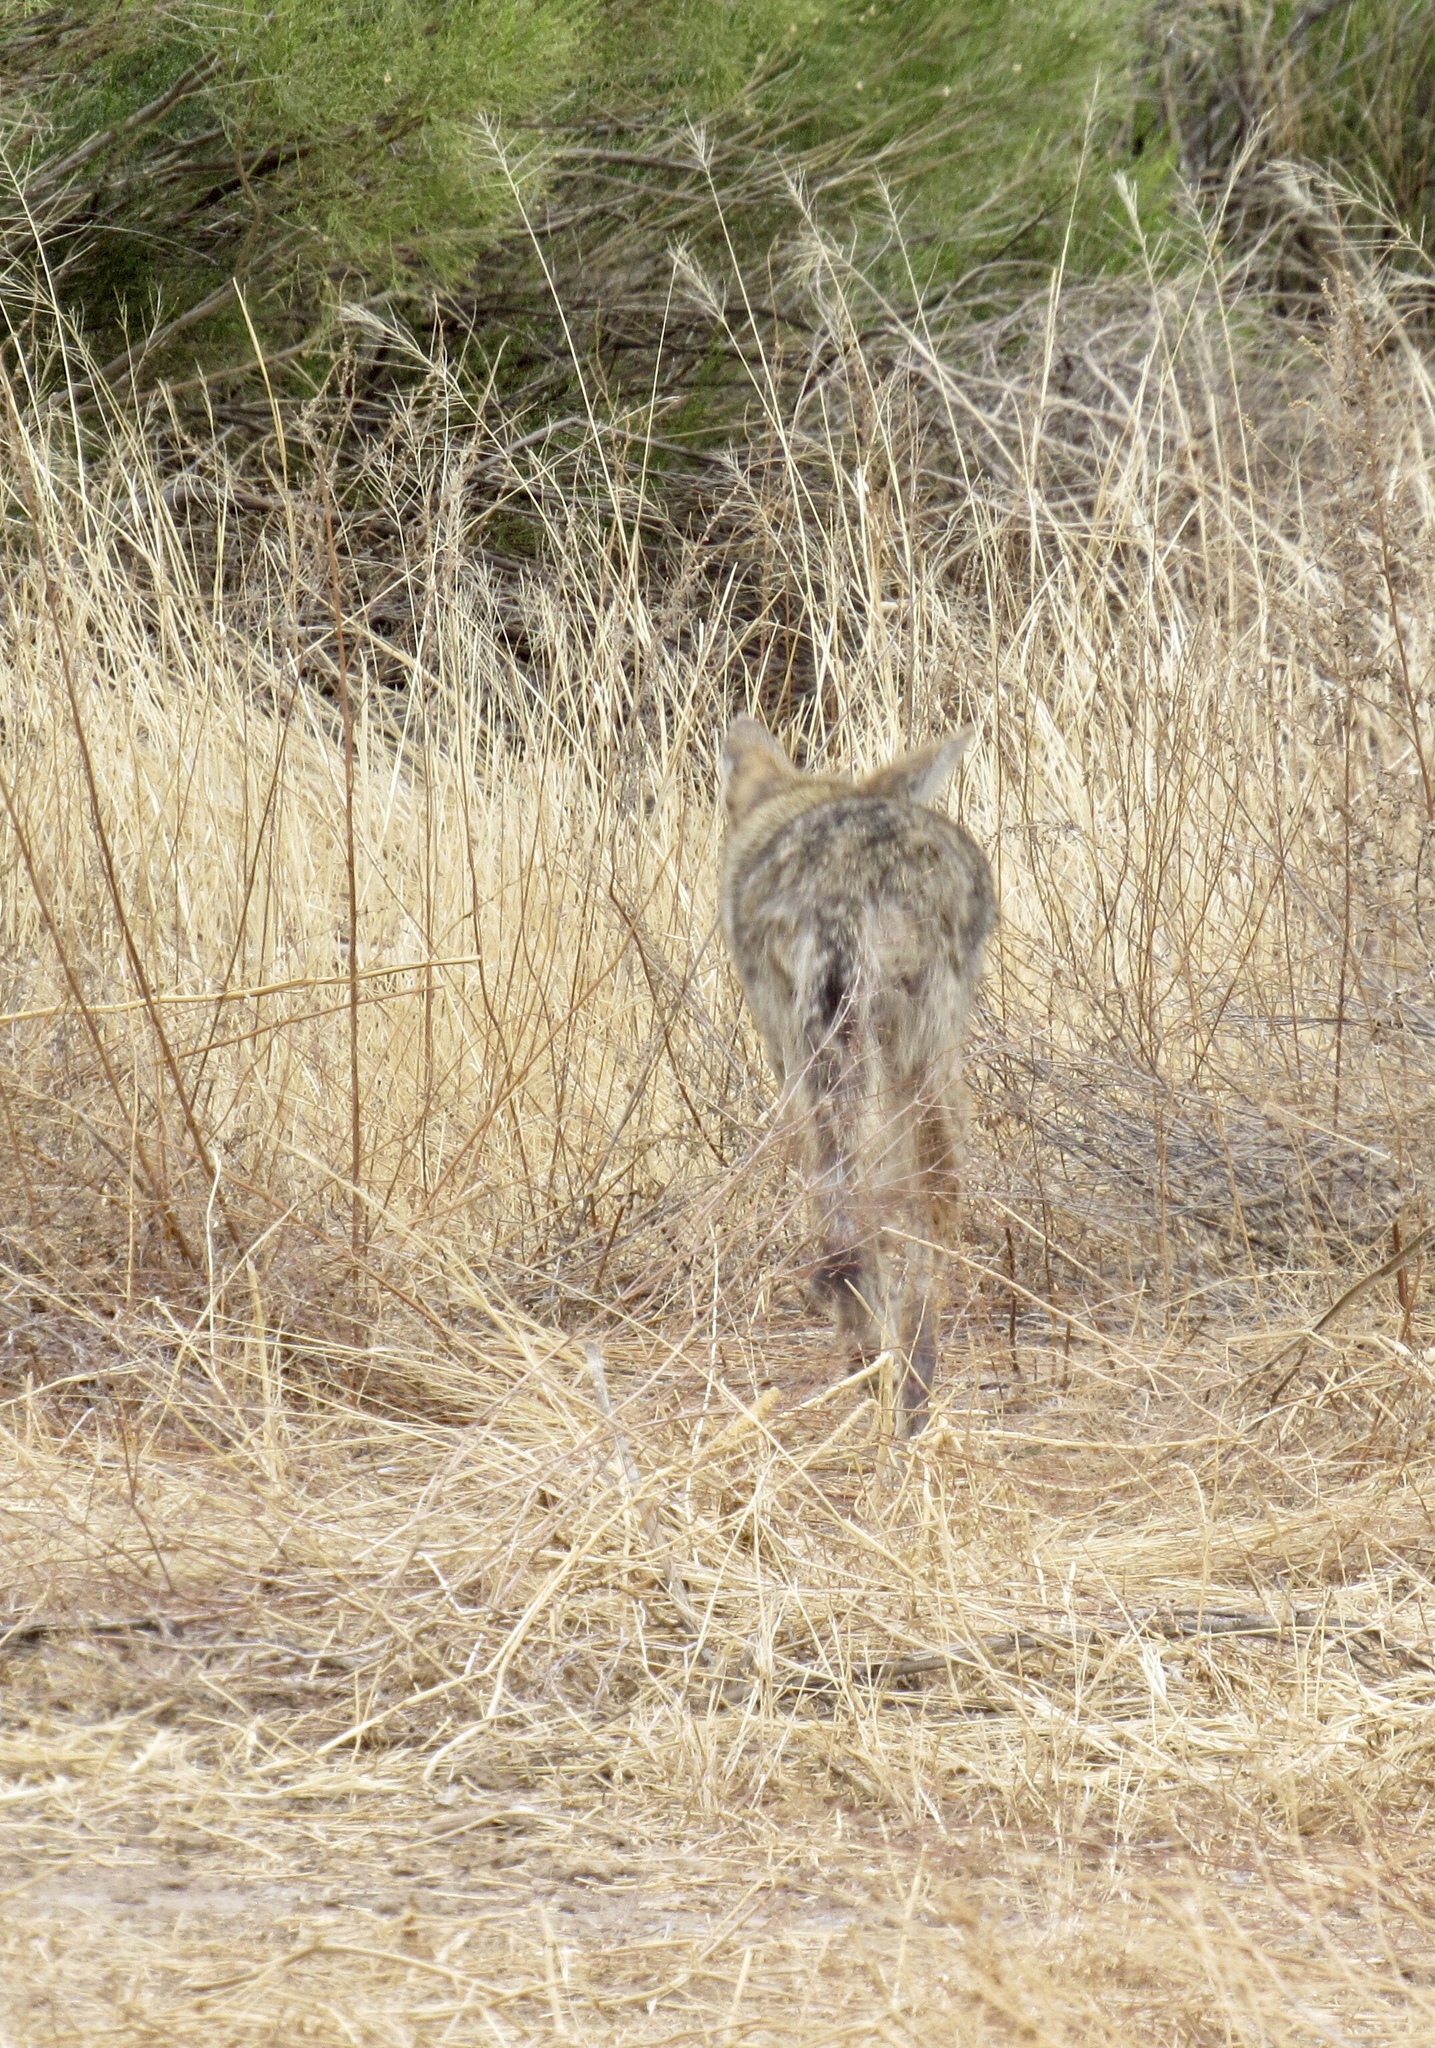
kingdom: Animalia
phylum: Chordata
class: Mammalia
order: Carnivora
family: Canidae
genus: Canis
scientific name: Canis latrans
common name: Coyote
